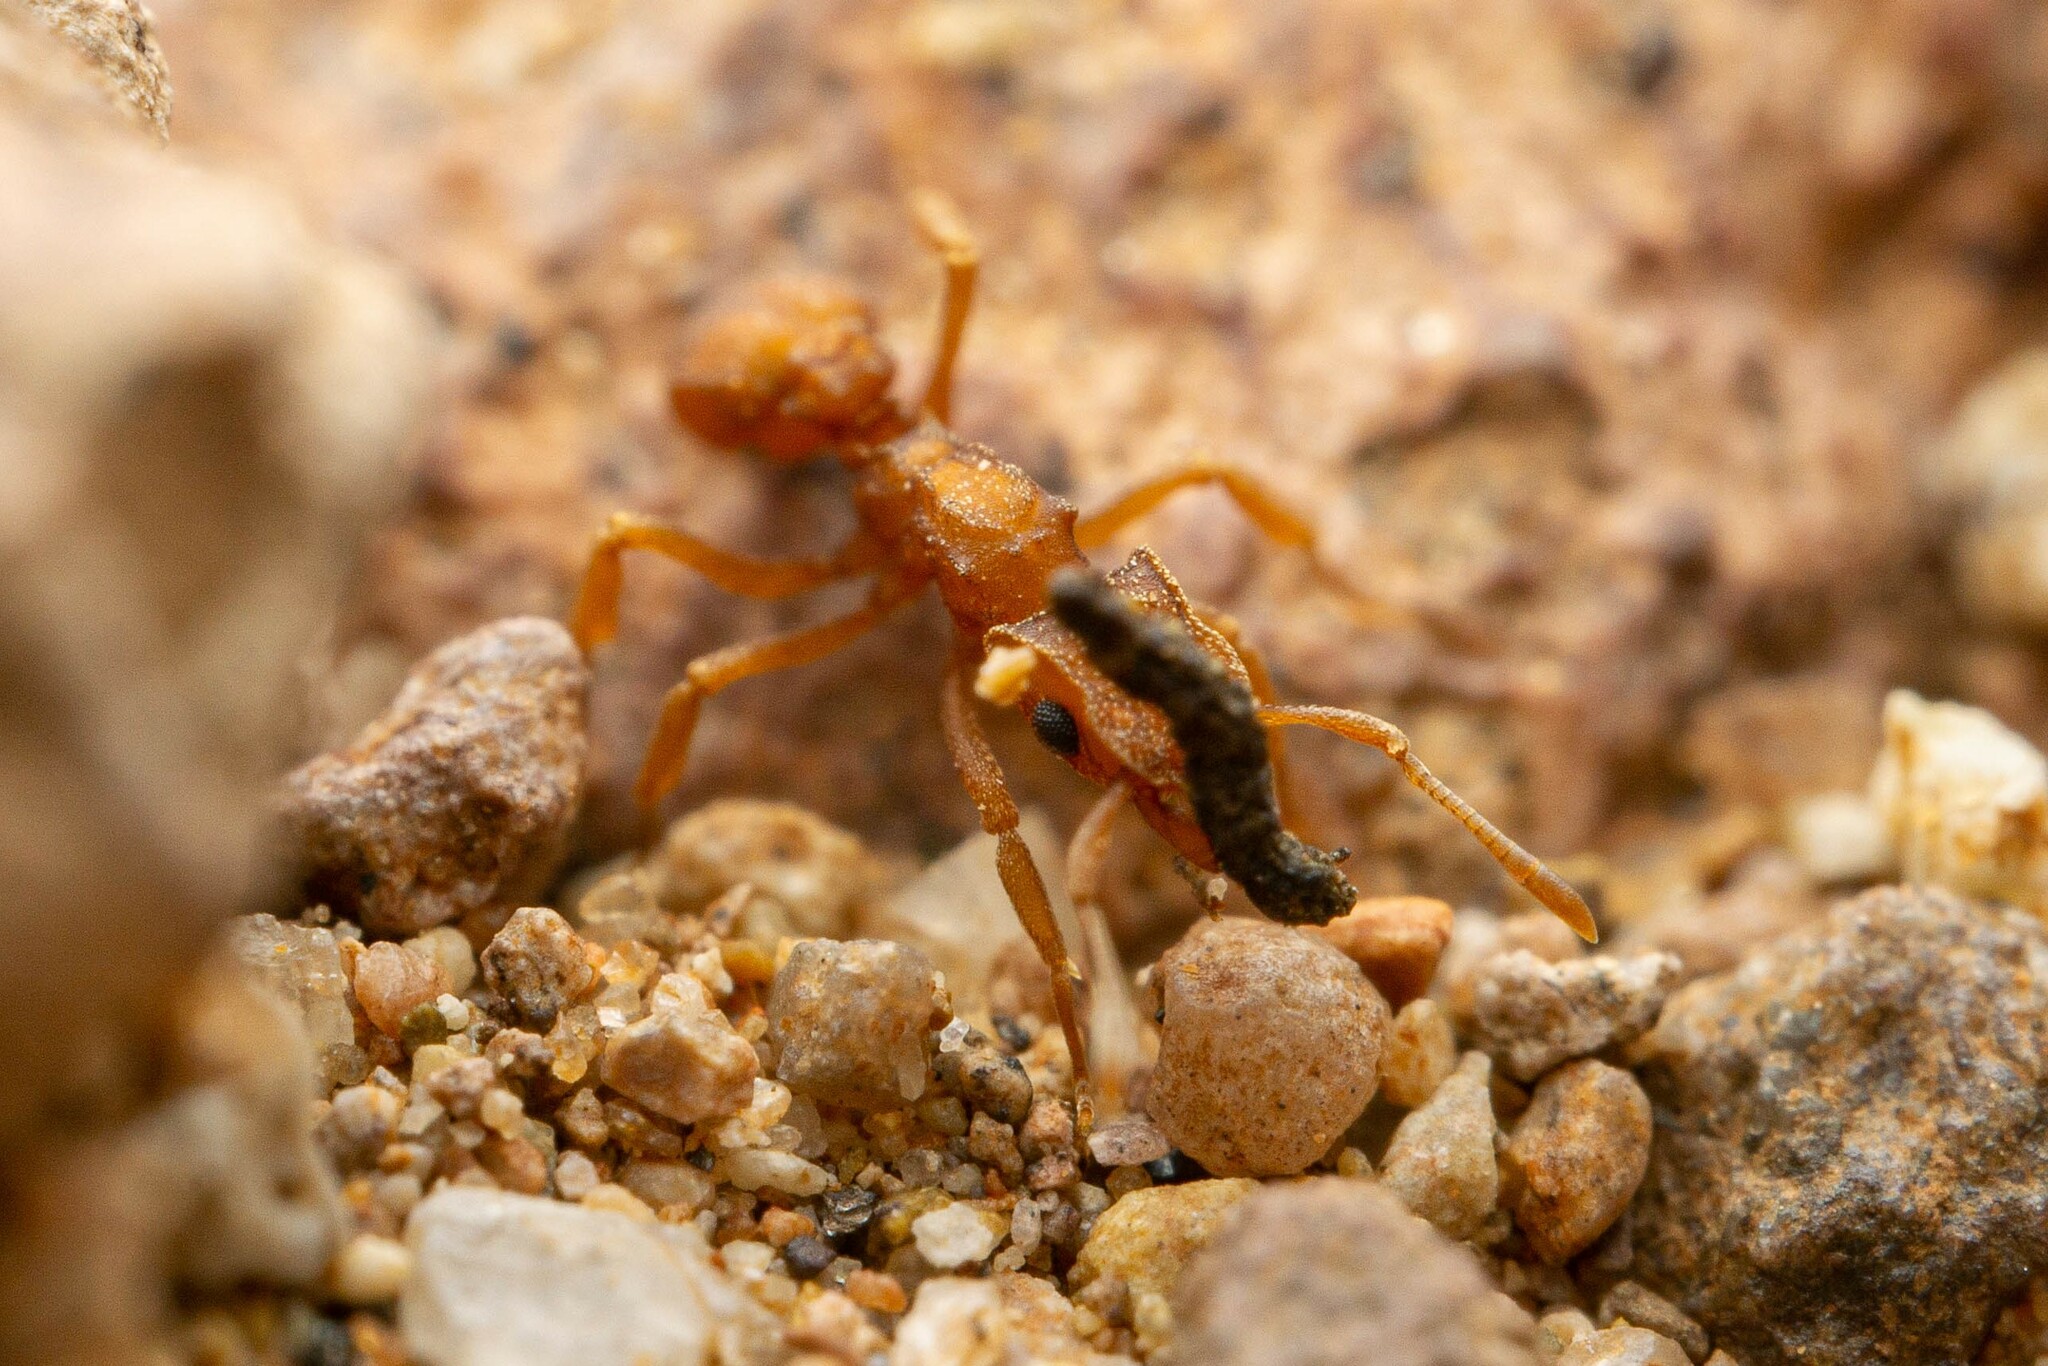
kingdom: Animalia
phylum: Arthropoda
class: Insecta
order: Hymenoptera
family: Formicidae
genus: Cyphomyrmex
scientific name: Cyphomyrmex wheeleri
